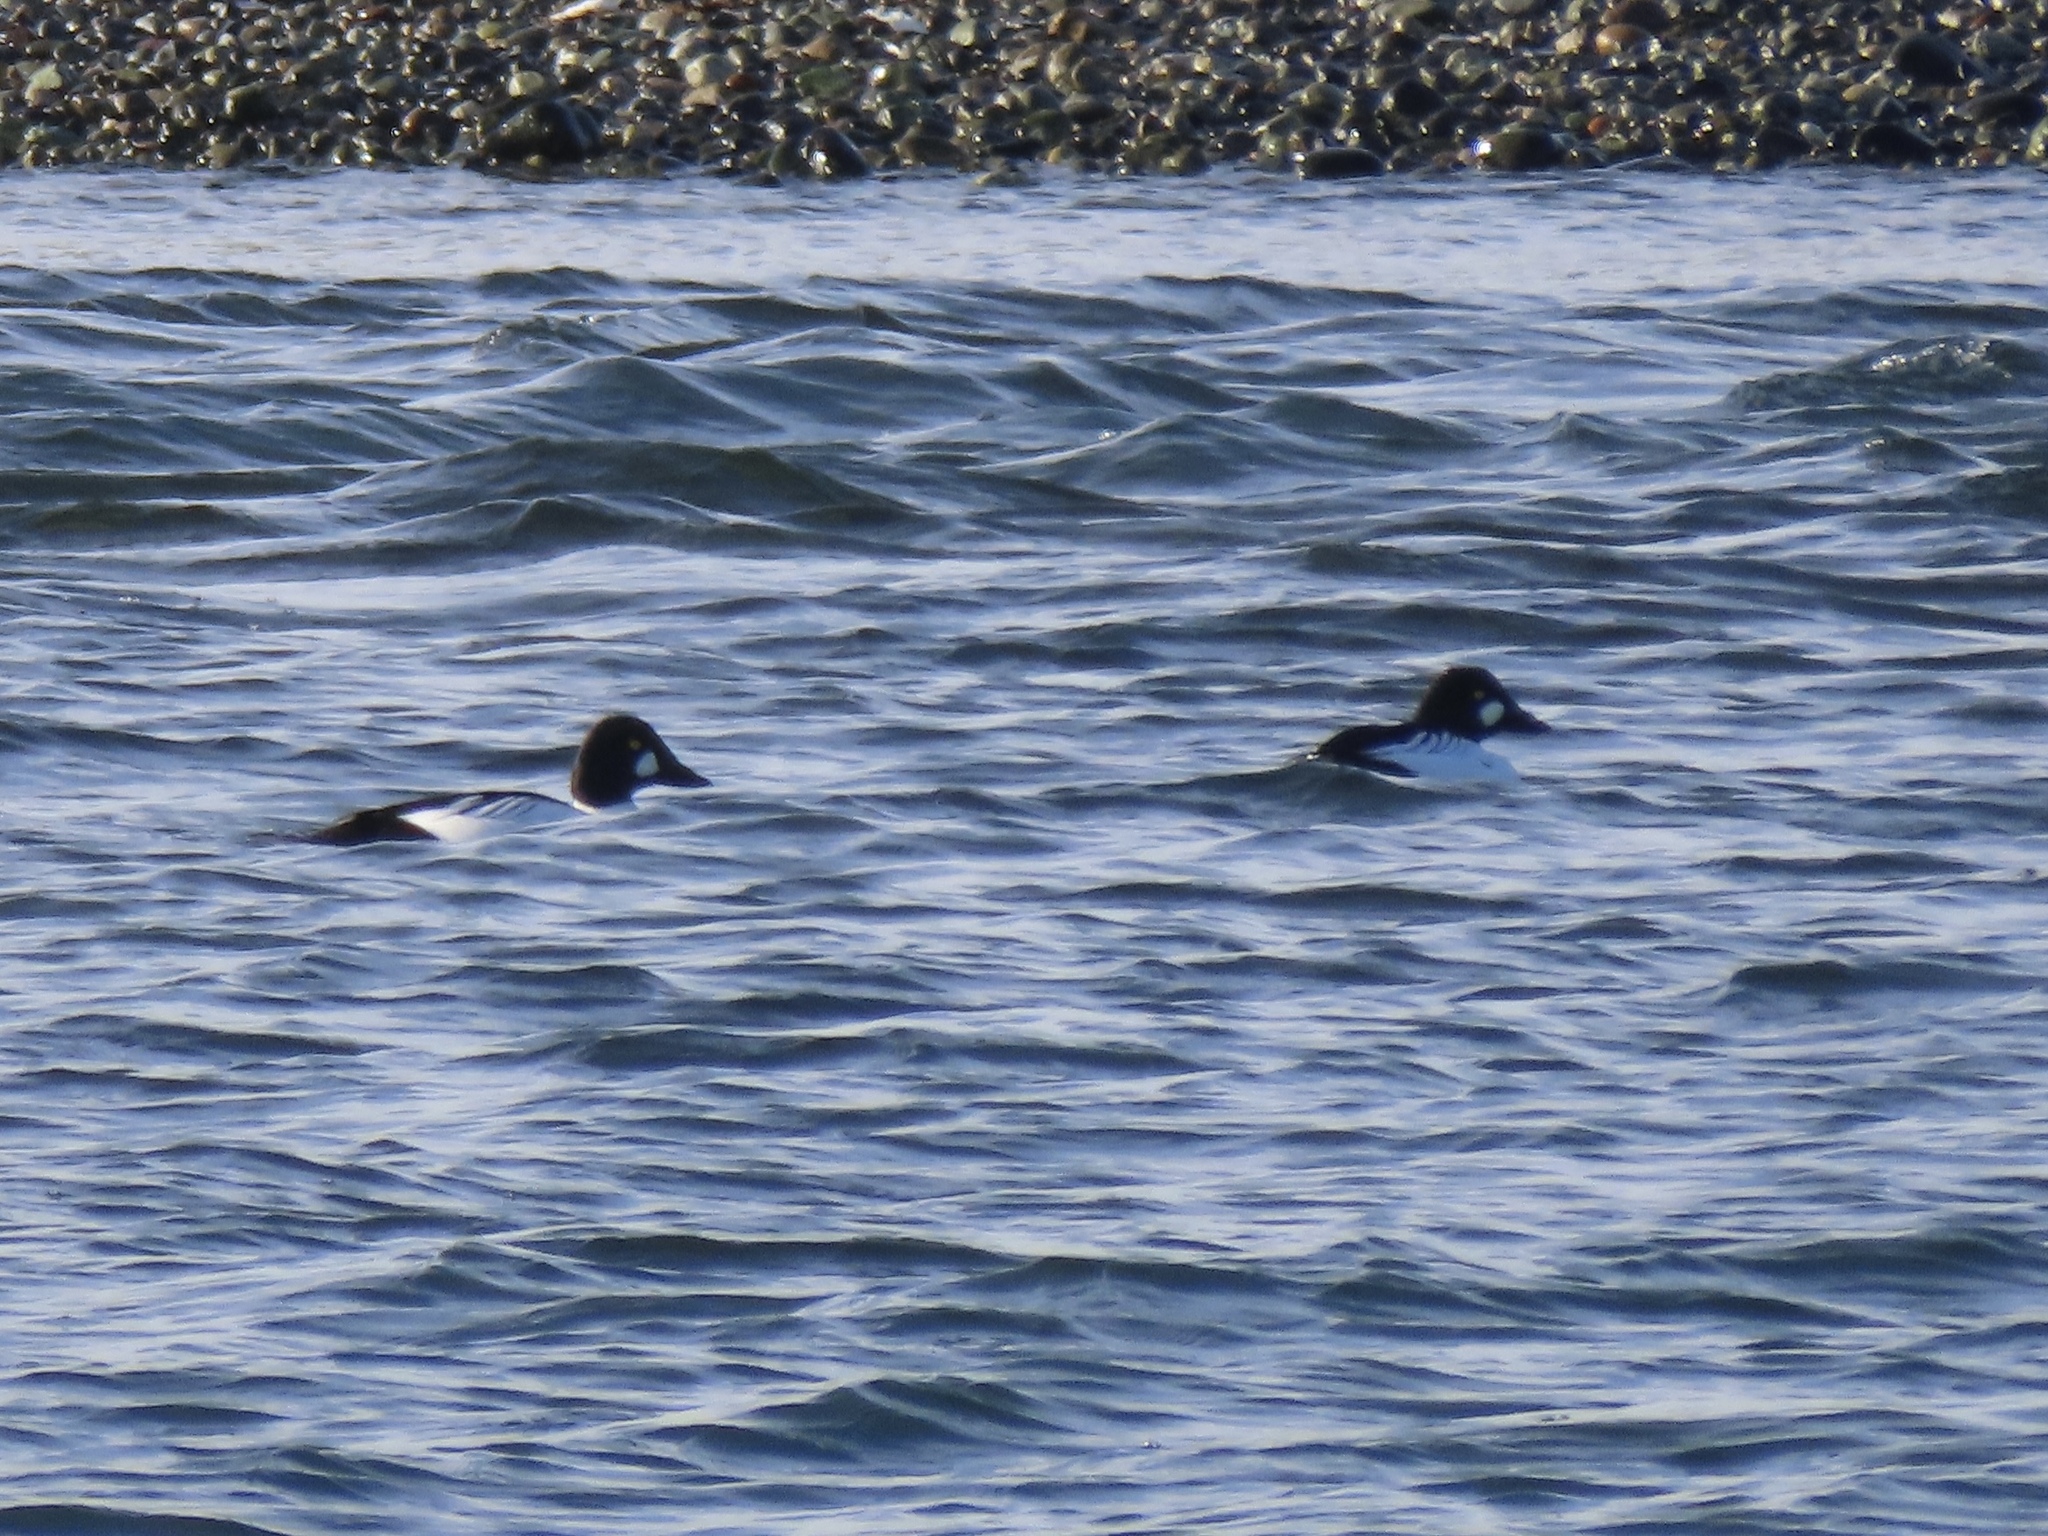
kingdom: Animalia
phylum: Chordata
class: Aves
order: Anseriformes
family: Anatidae
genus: Bucephala
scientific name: Bucephala clangula
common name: Common goldeneye
